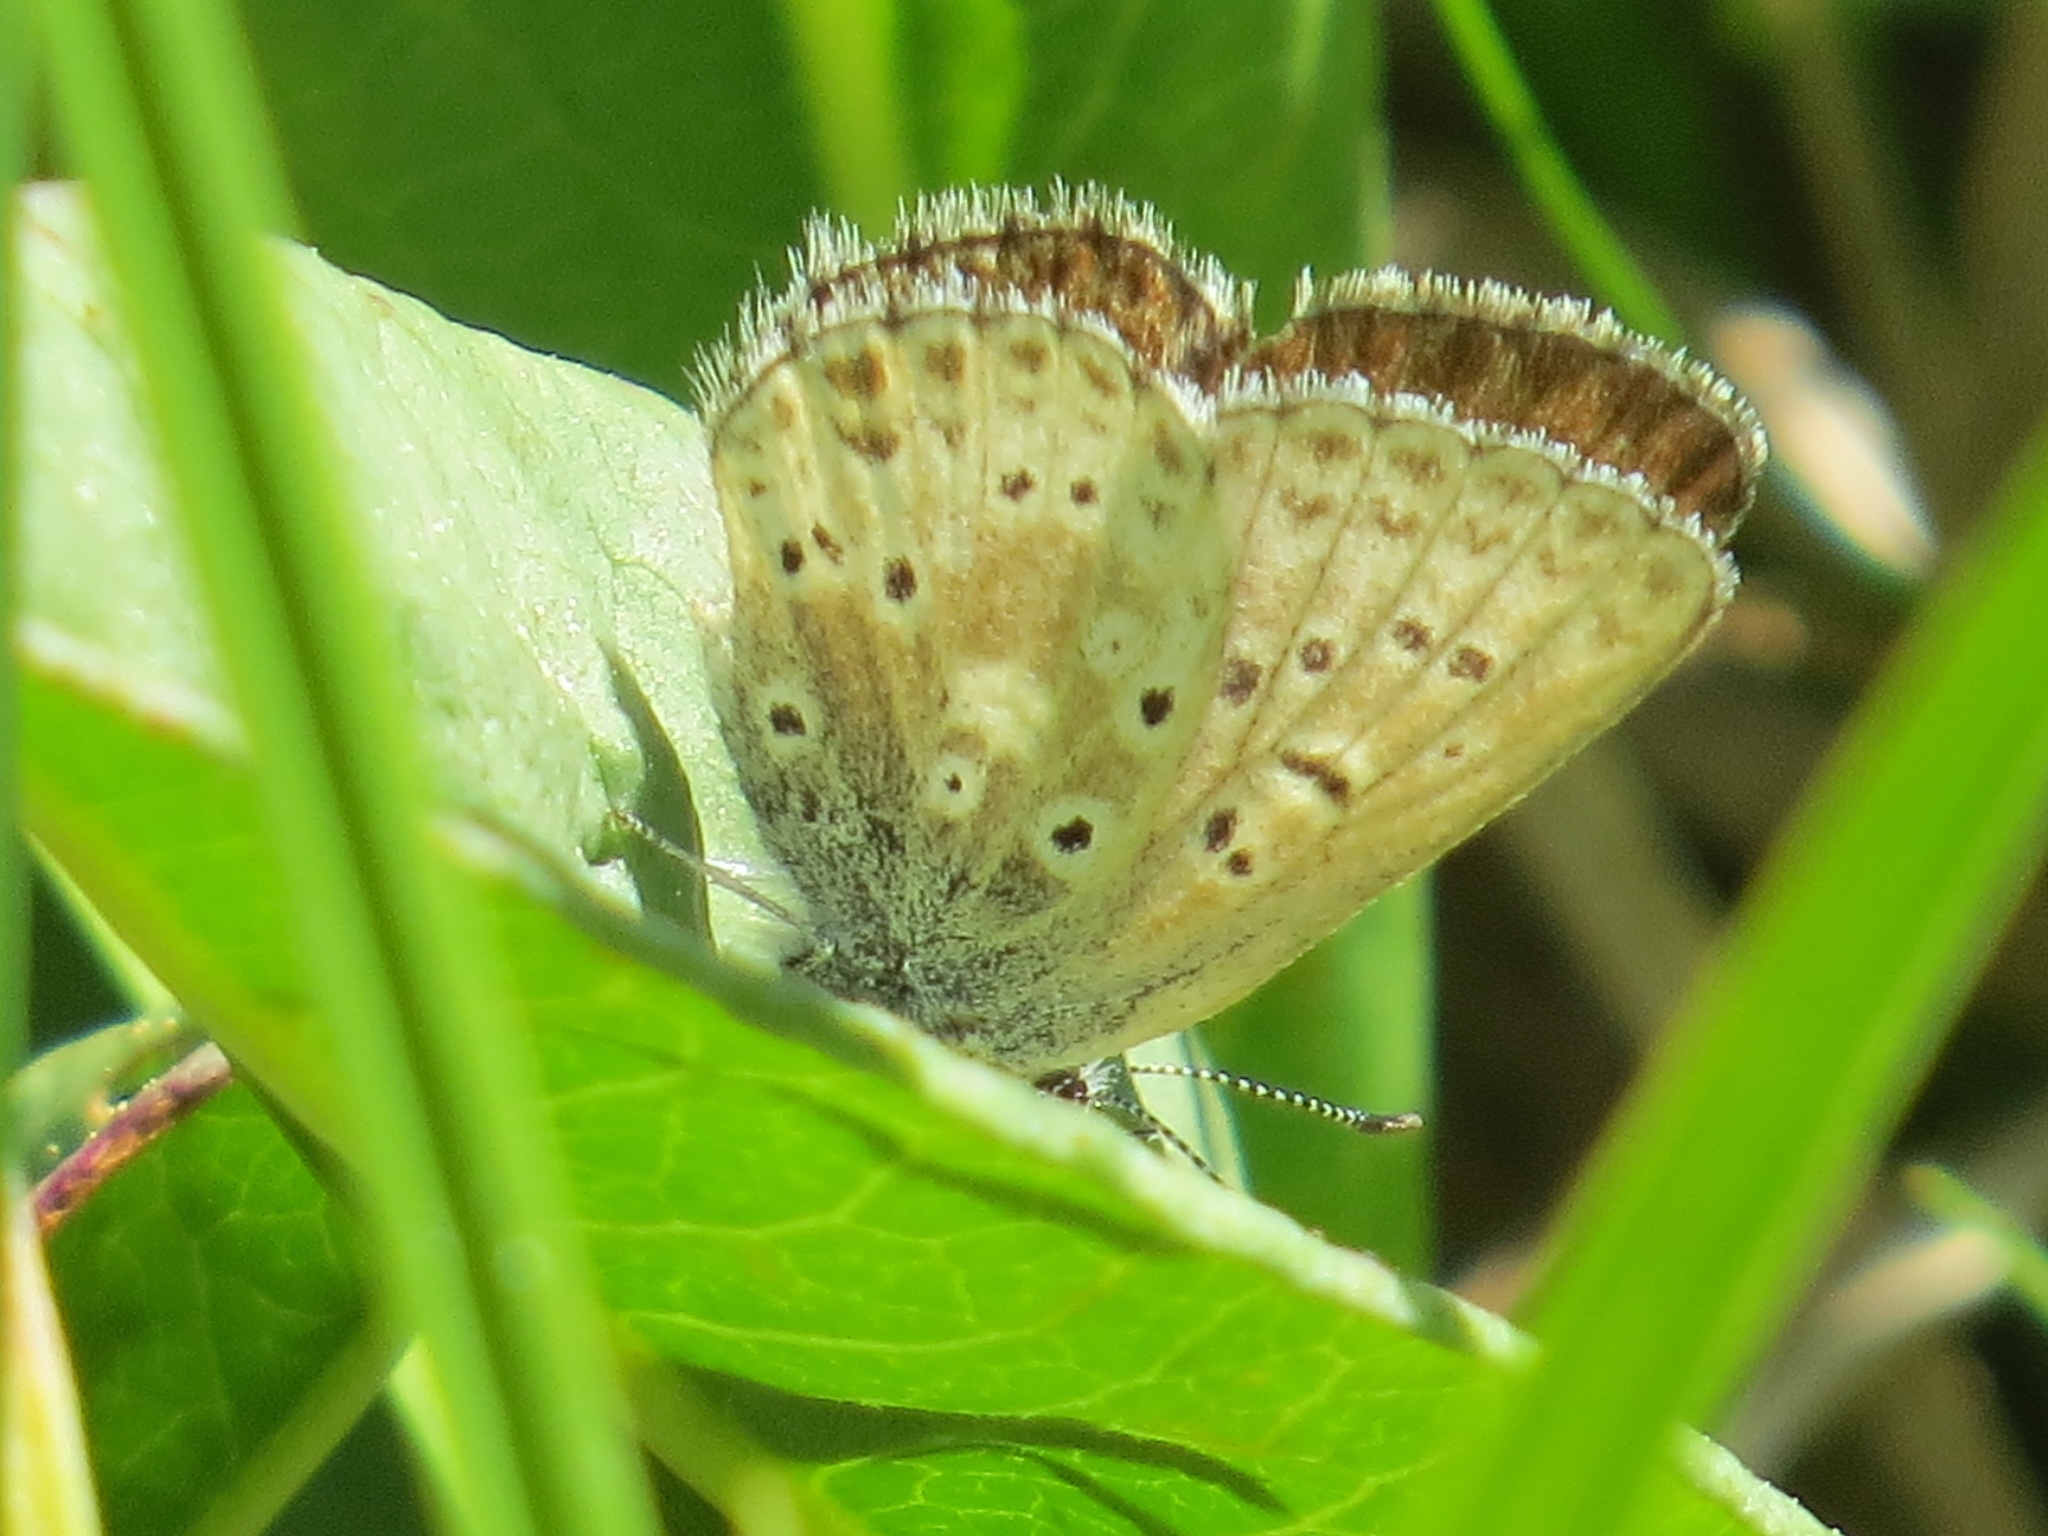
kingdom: Animalia
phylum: Arthropoda
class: Insecta
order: Lepidoptera
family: Lycaenidae
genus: Agriades
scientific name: Agriades podarce
